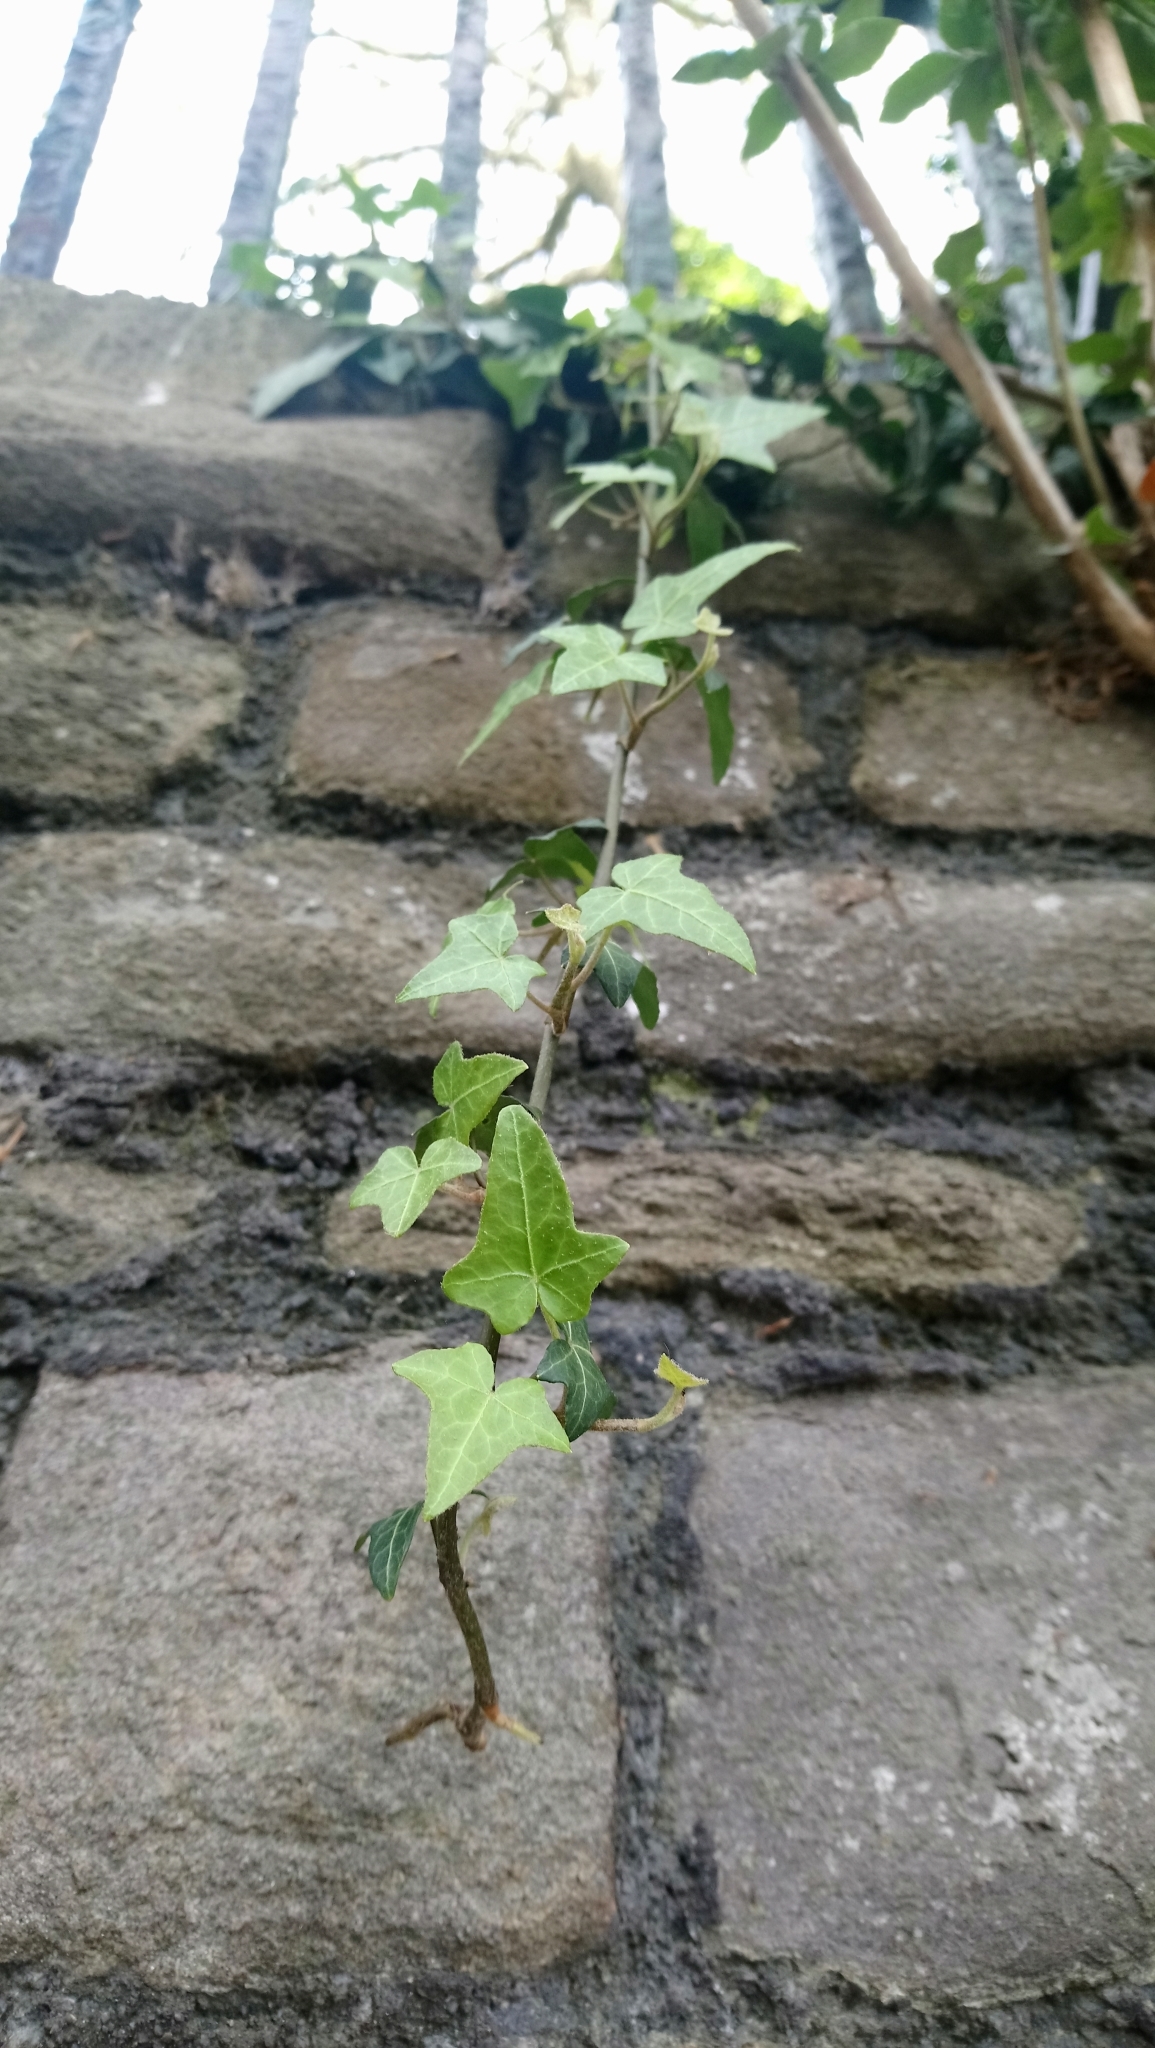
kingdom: Plantae
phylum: Tracheophyta
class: Magnoliopsida
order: Apiales
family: Araliaceae
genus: Hedera
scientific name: Hedera helix
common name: Ivy
